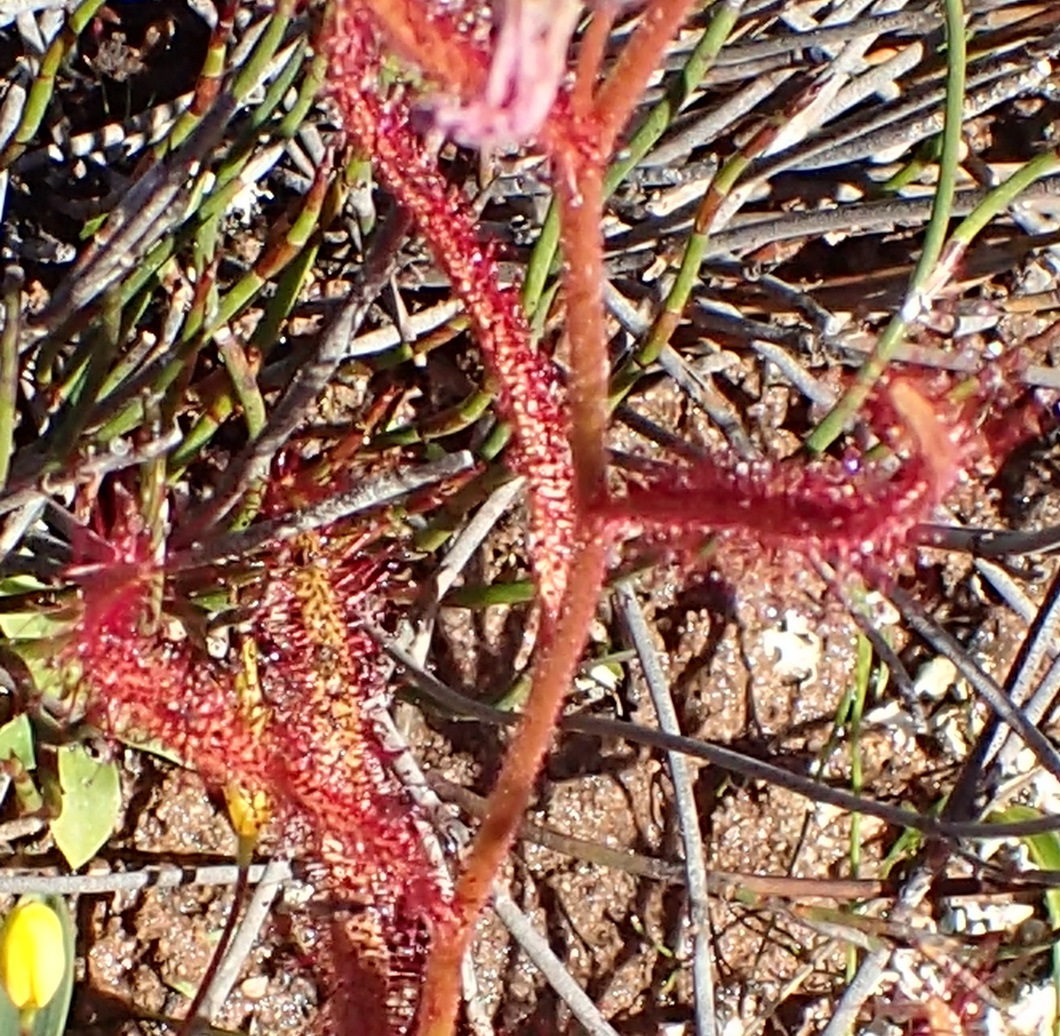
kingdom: Plantae
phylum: Tracheophyta
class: Magnoliopsida
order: Caryophyllales
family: Droseraceae
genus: Drosera
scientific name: Drosera cistiflora
